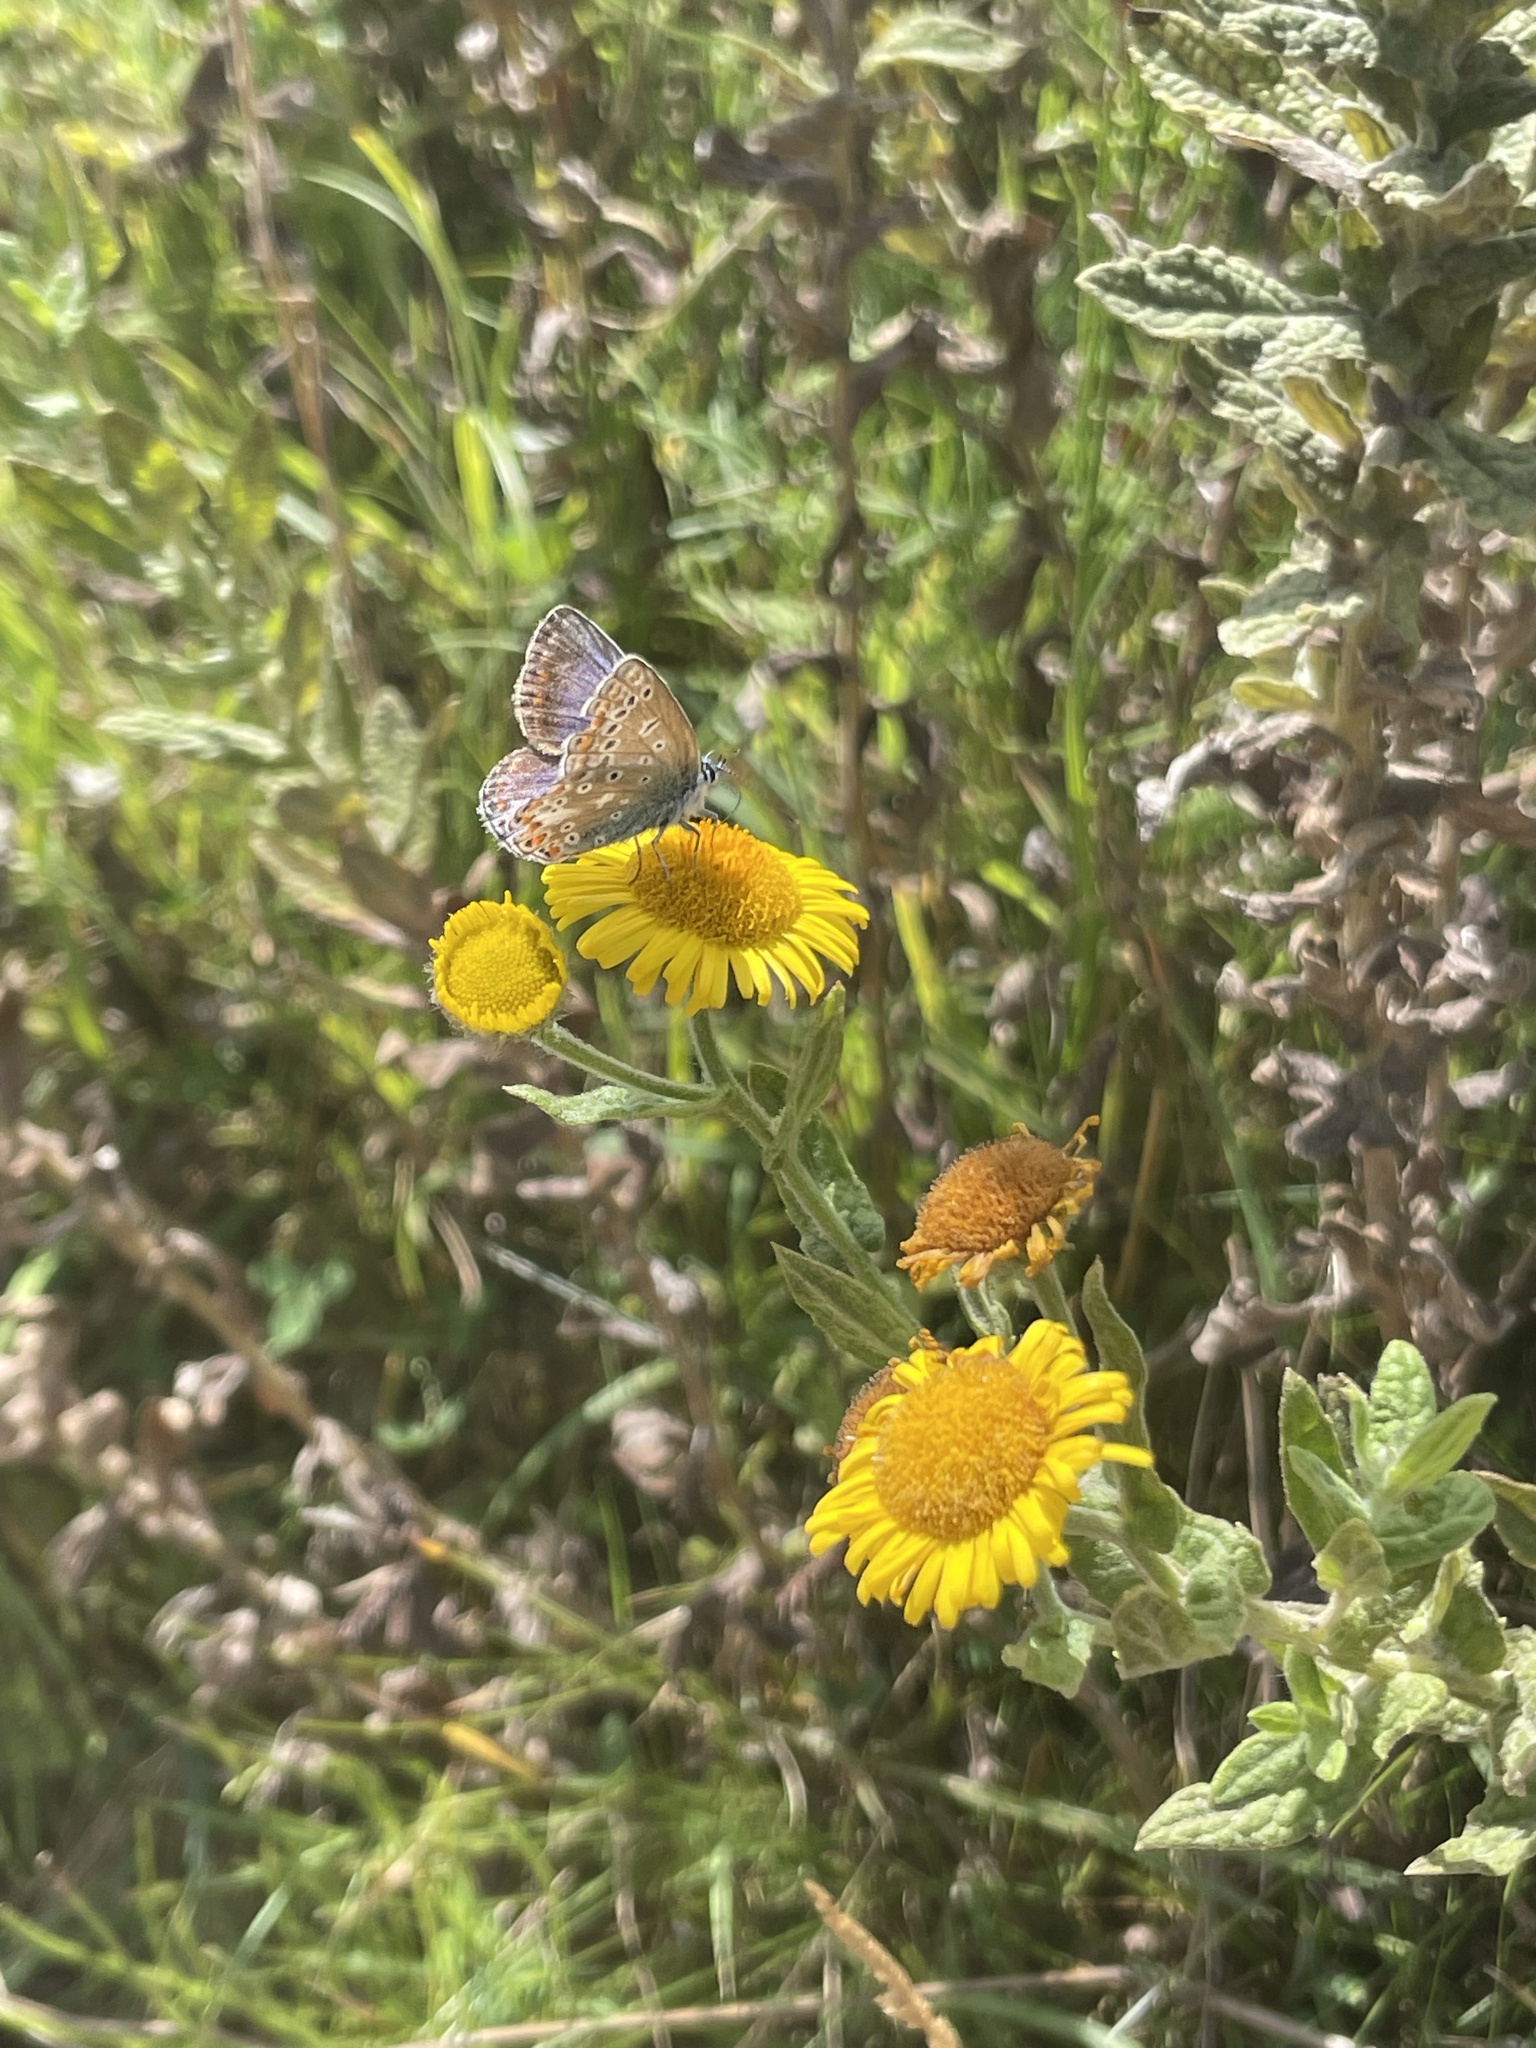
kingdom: Animalia
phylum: Arthropoda
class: Insecta
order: Lepidoptera
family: Lycaenidae
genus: Polyommatus
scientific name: Polyommatus icarus
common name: Common blue
